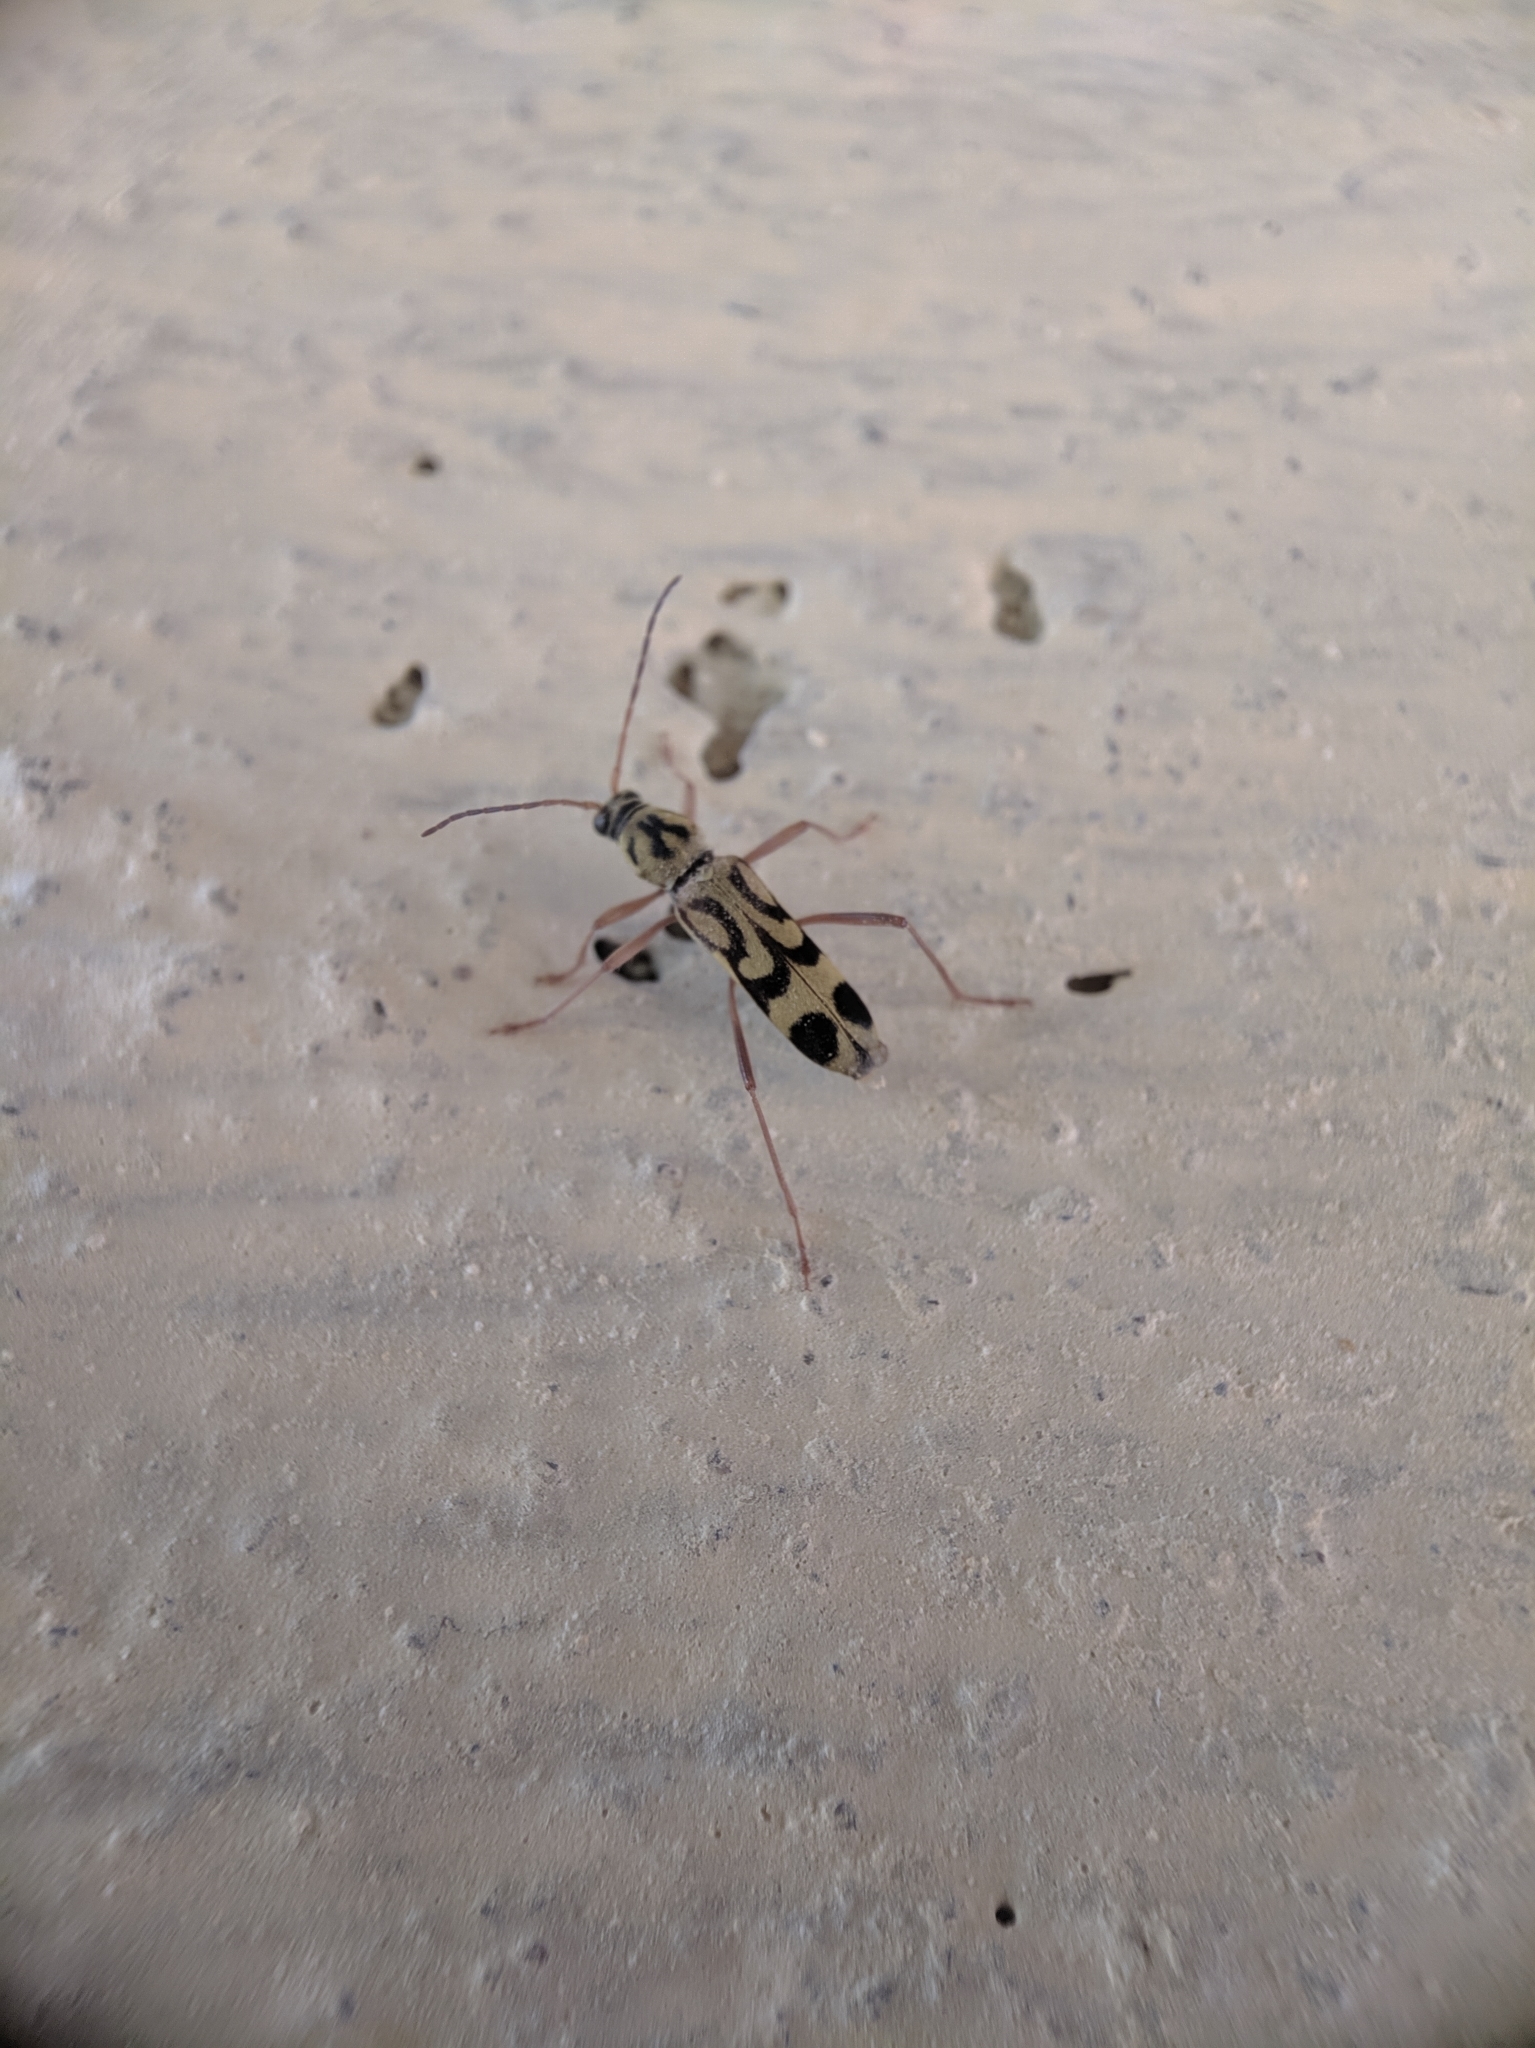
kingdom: Animalia
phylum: Arthropoda
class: Insecta
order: Coleoptera
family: Cerambycidae
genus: Chlorophorus
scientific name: Chlorophorus annularis
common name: Bamboo longhorn beetle
